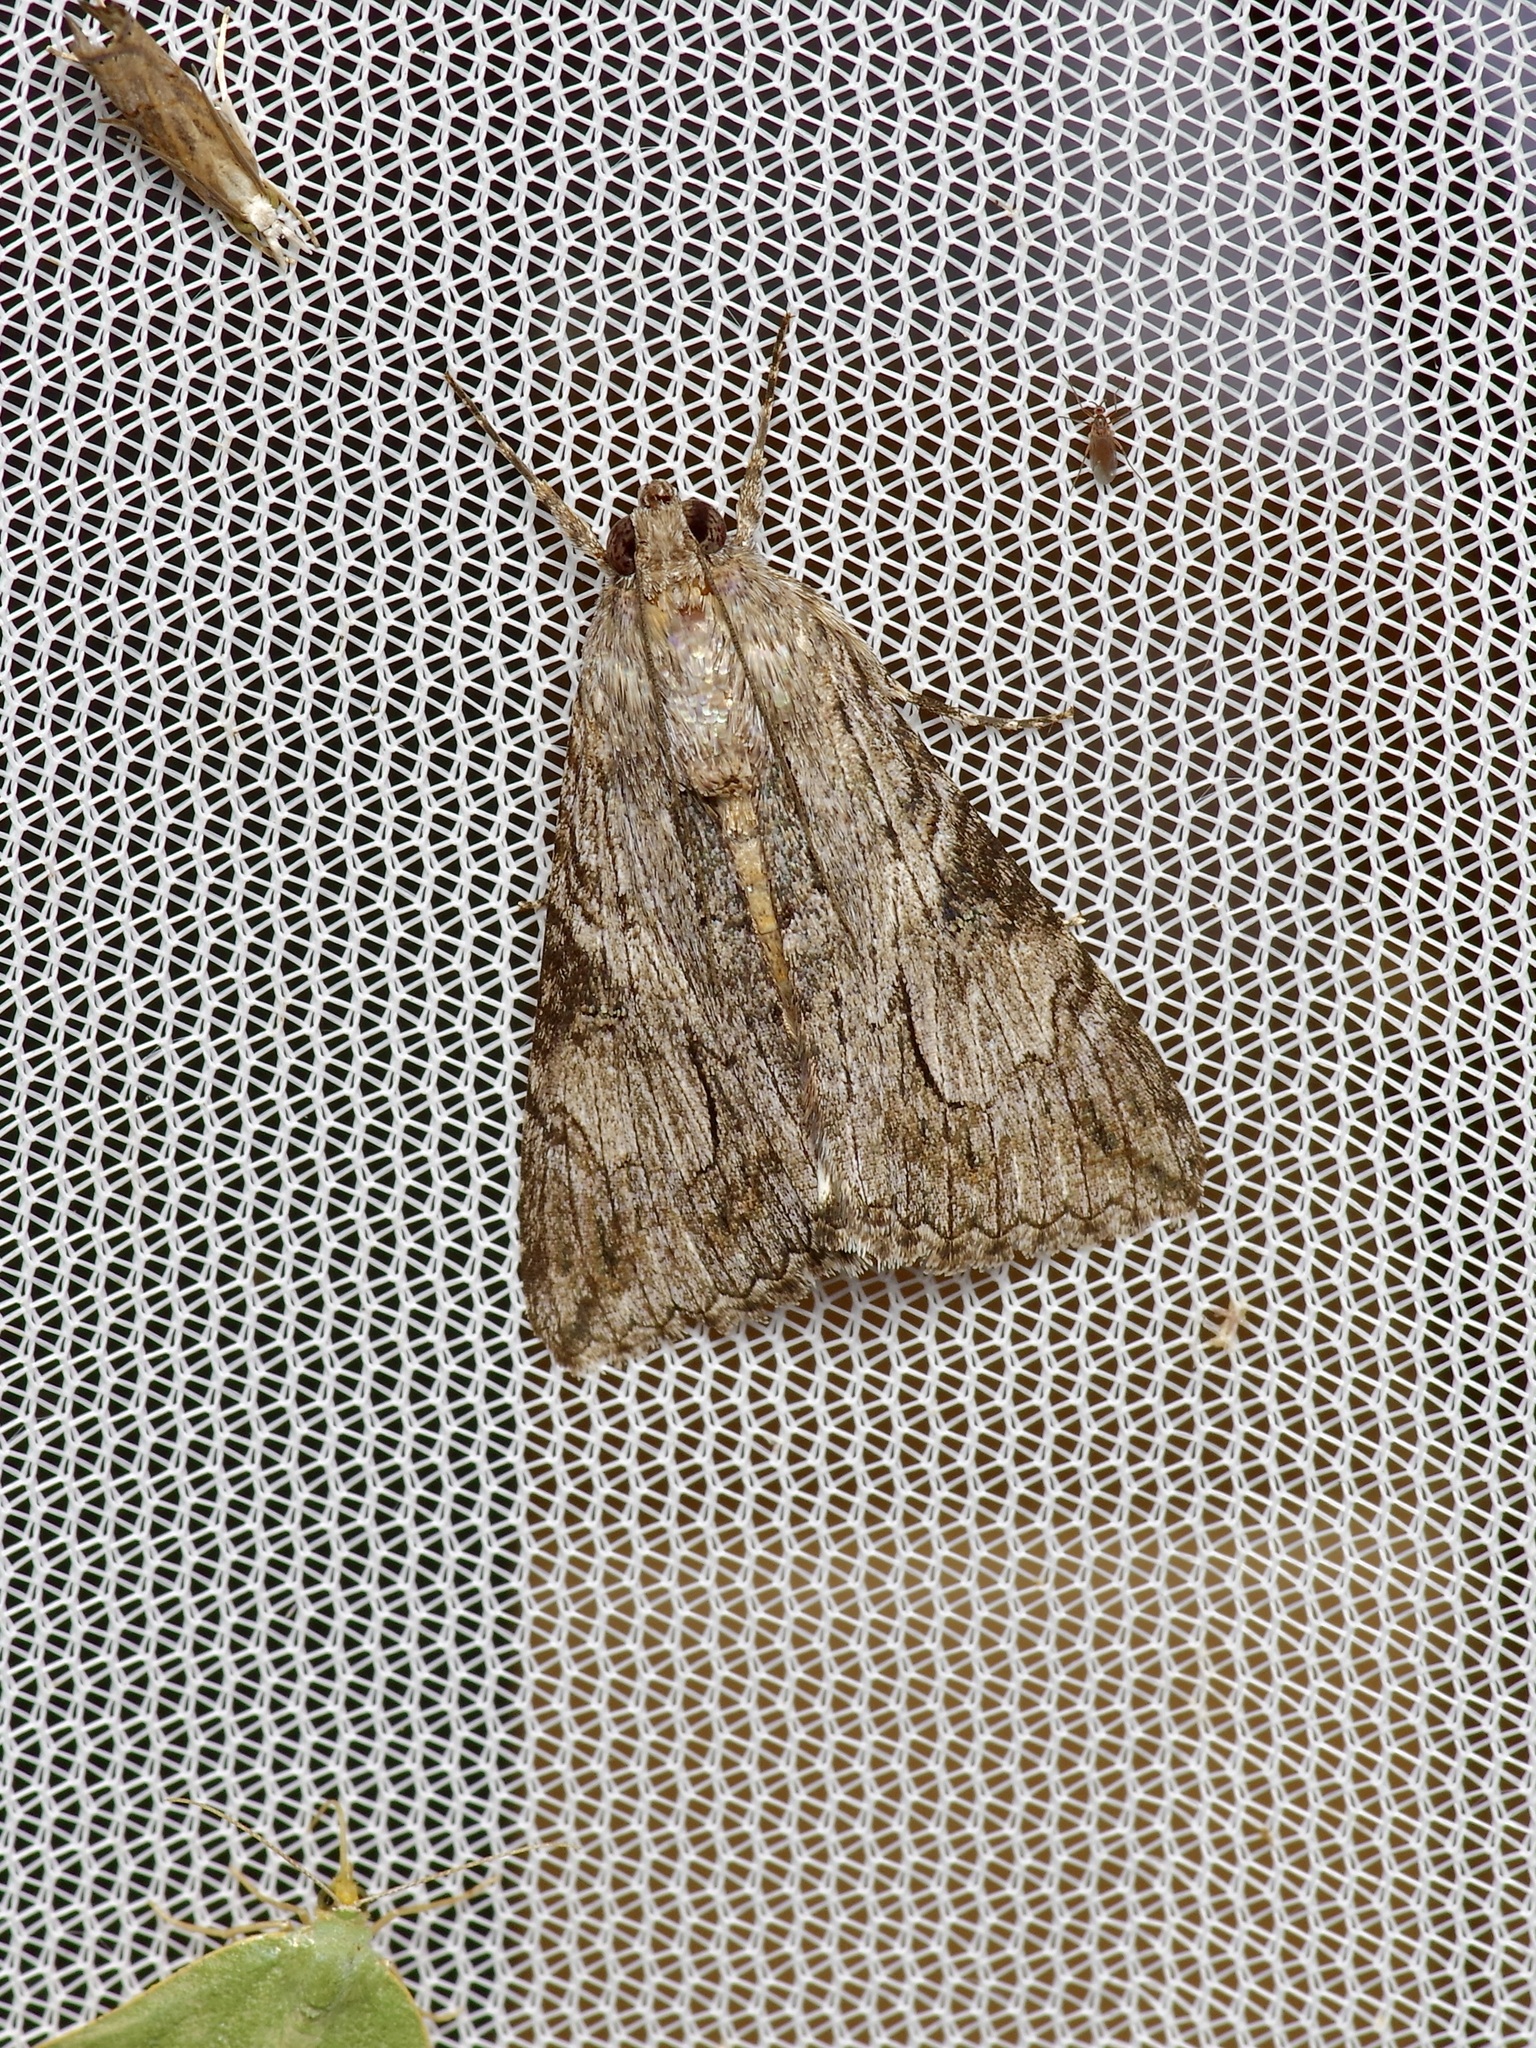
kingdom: Animalia
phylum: Arthropoda
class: Insecta
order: Lepidoptera
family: Erebidae
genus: Melipotis
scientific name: Melipotis jucunda
